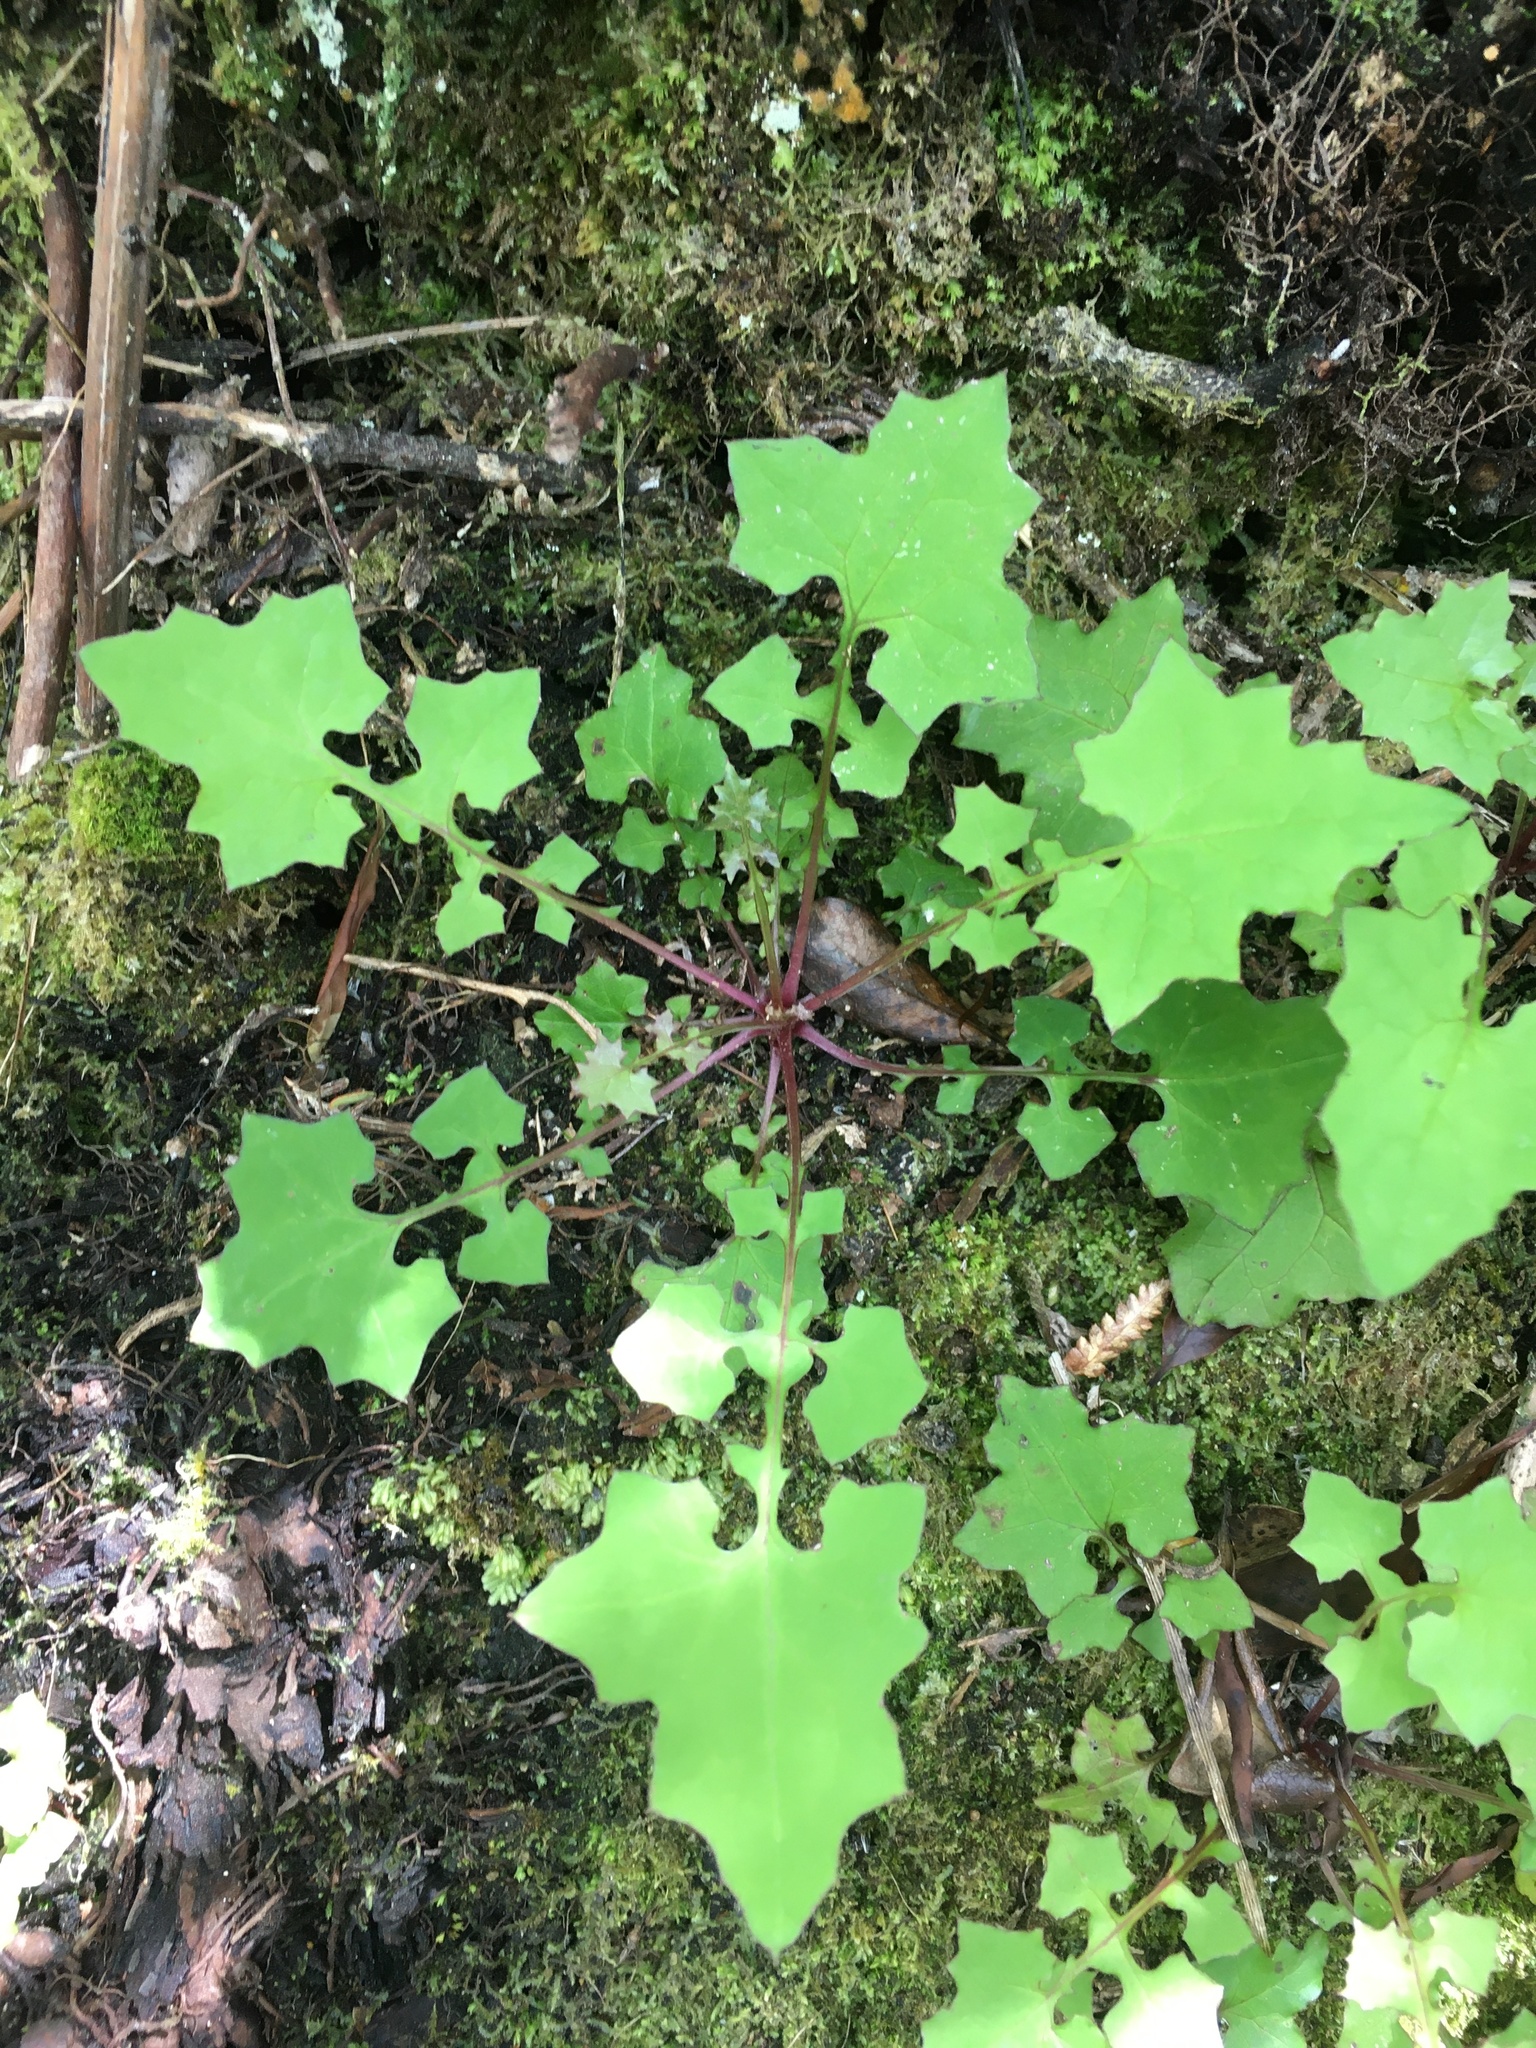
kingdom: Plantae
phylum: Tracheophyta
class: Magnoliopsida
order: Asterales
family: Asteraceae
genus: Mycelis
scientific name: Mycelis muralis
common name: Wall lettuce
